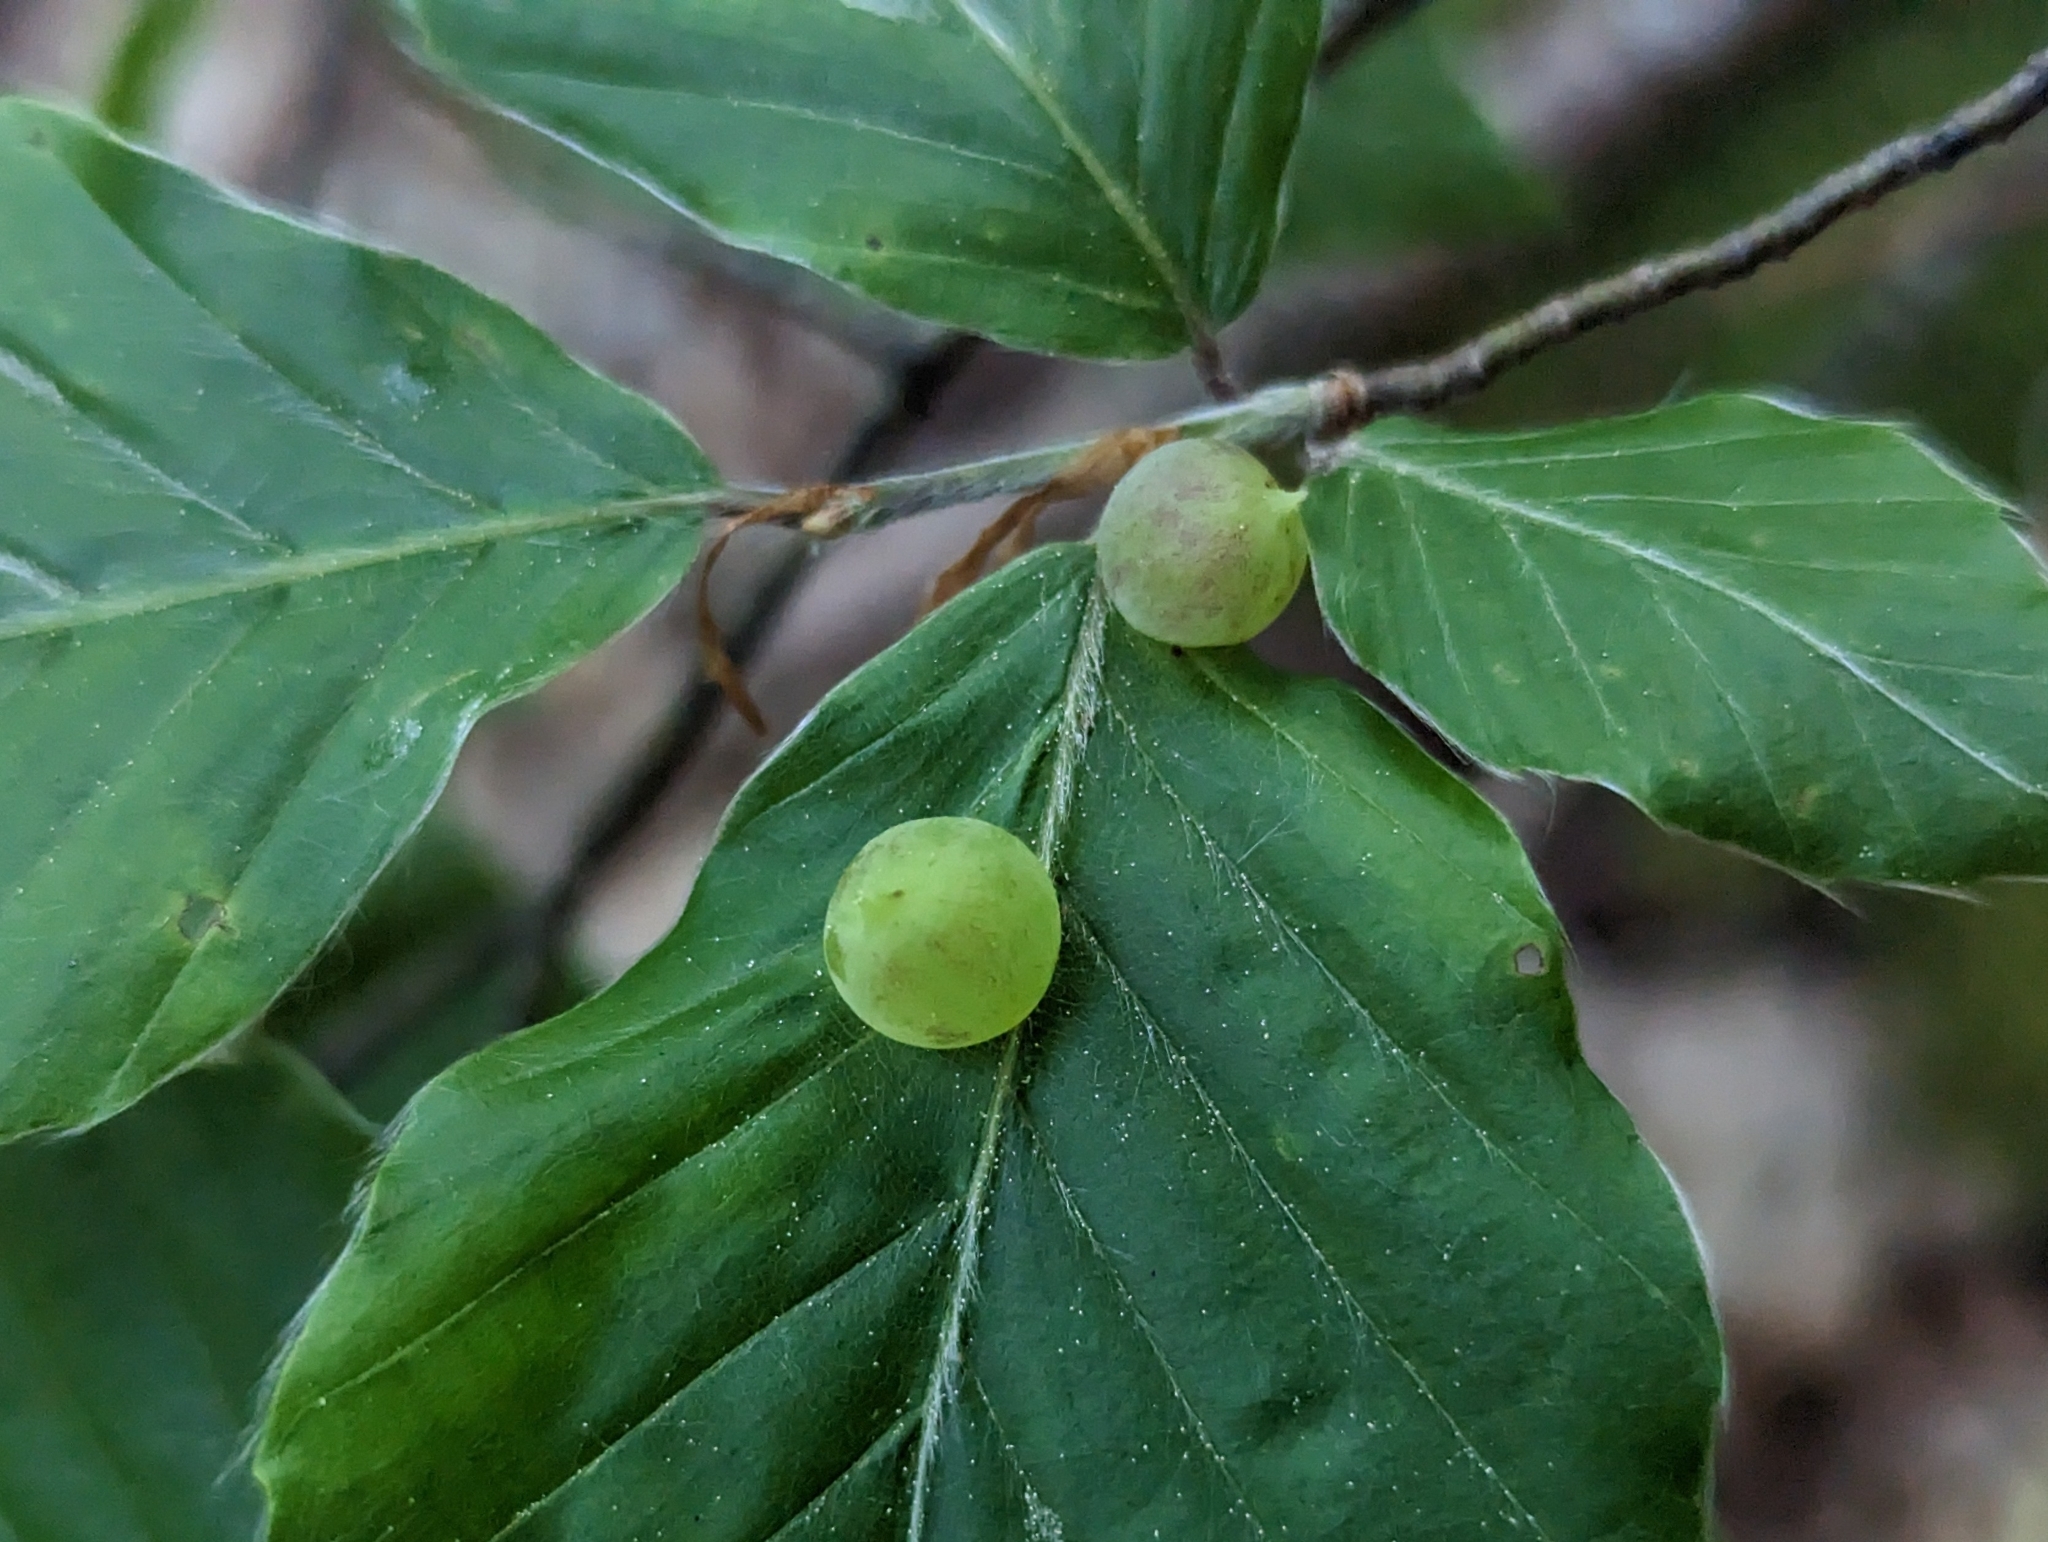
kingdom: Animalia
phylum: Arthropoda
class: Insecta
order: Diptera
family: Cecidomyiidae
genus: Mikiola
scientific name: Mikiola fagi
